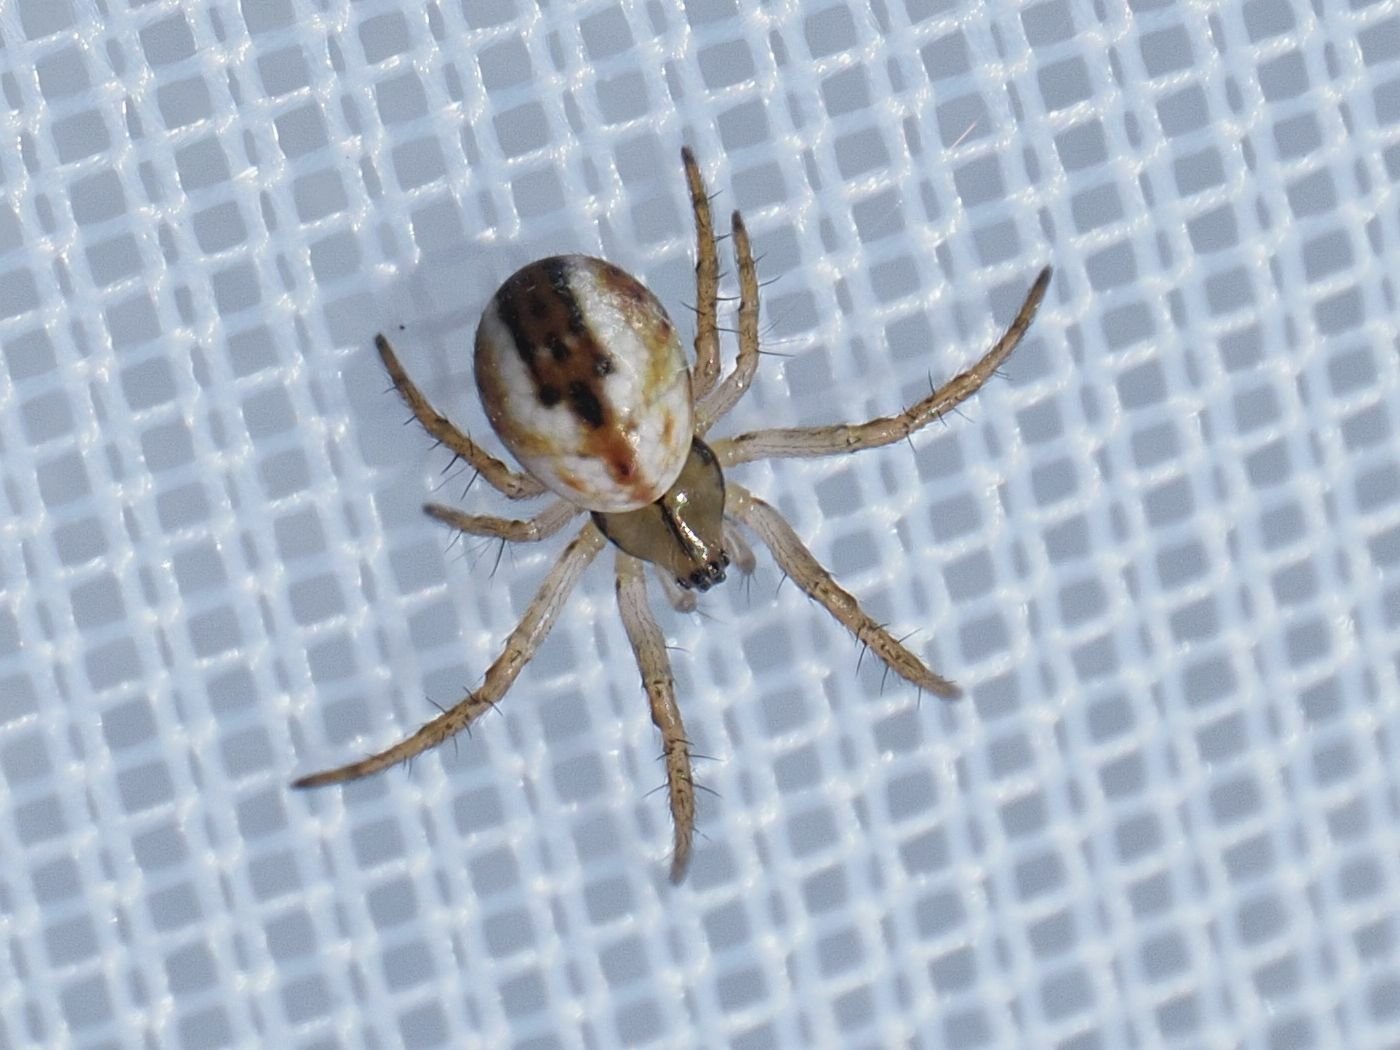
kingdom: Animalia
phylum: Arthropoda
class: Arachnida
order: Araneae
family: Araneidae
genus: Mangora
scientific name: Mangora acalypha
